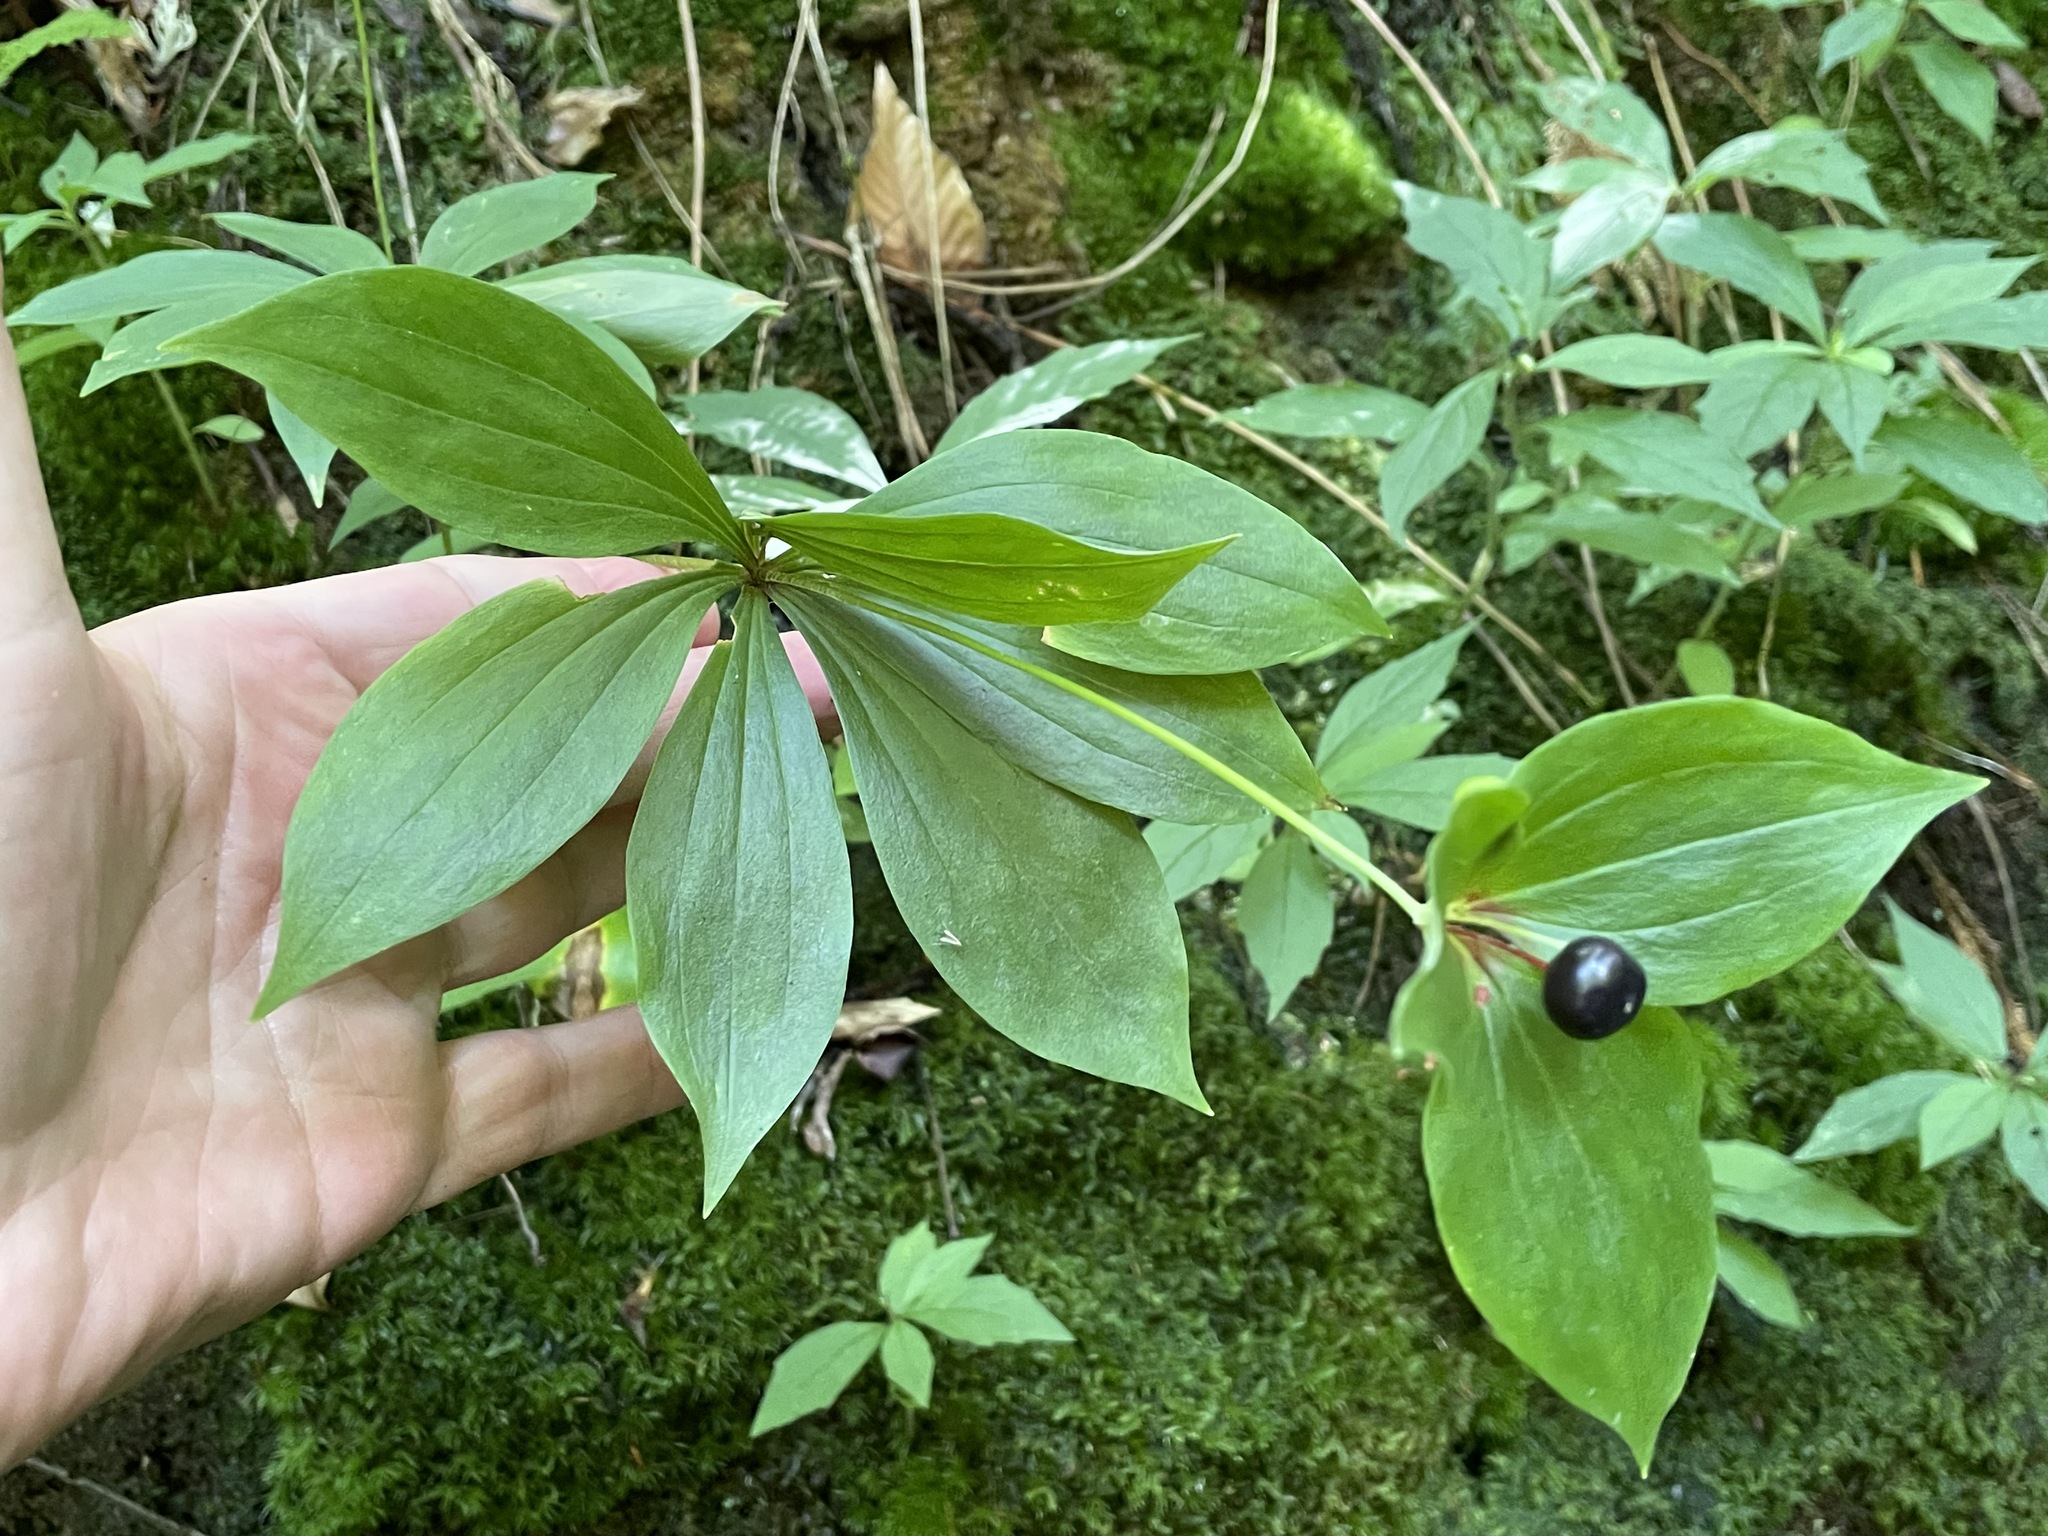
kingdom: Plantae
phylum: Tracheophyta
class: Liliopsida
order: Liliales
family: Liliaceae
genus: Medeola
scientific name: Medeola virginiana
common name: Indian cucumber-root
